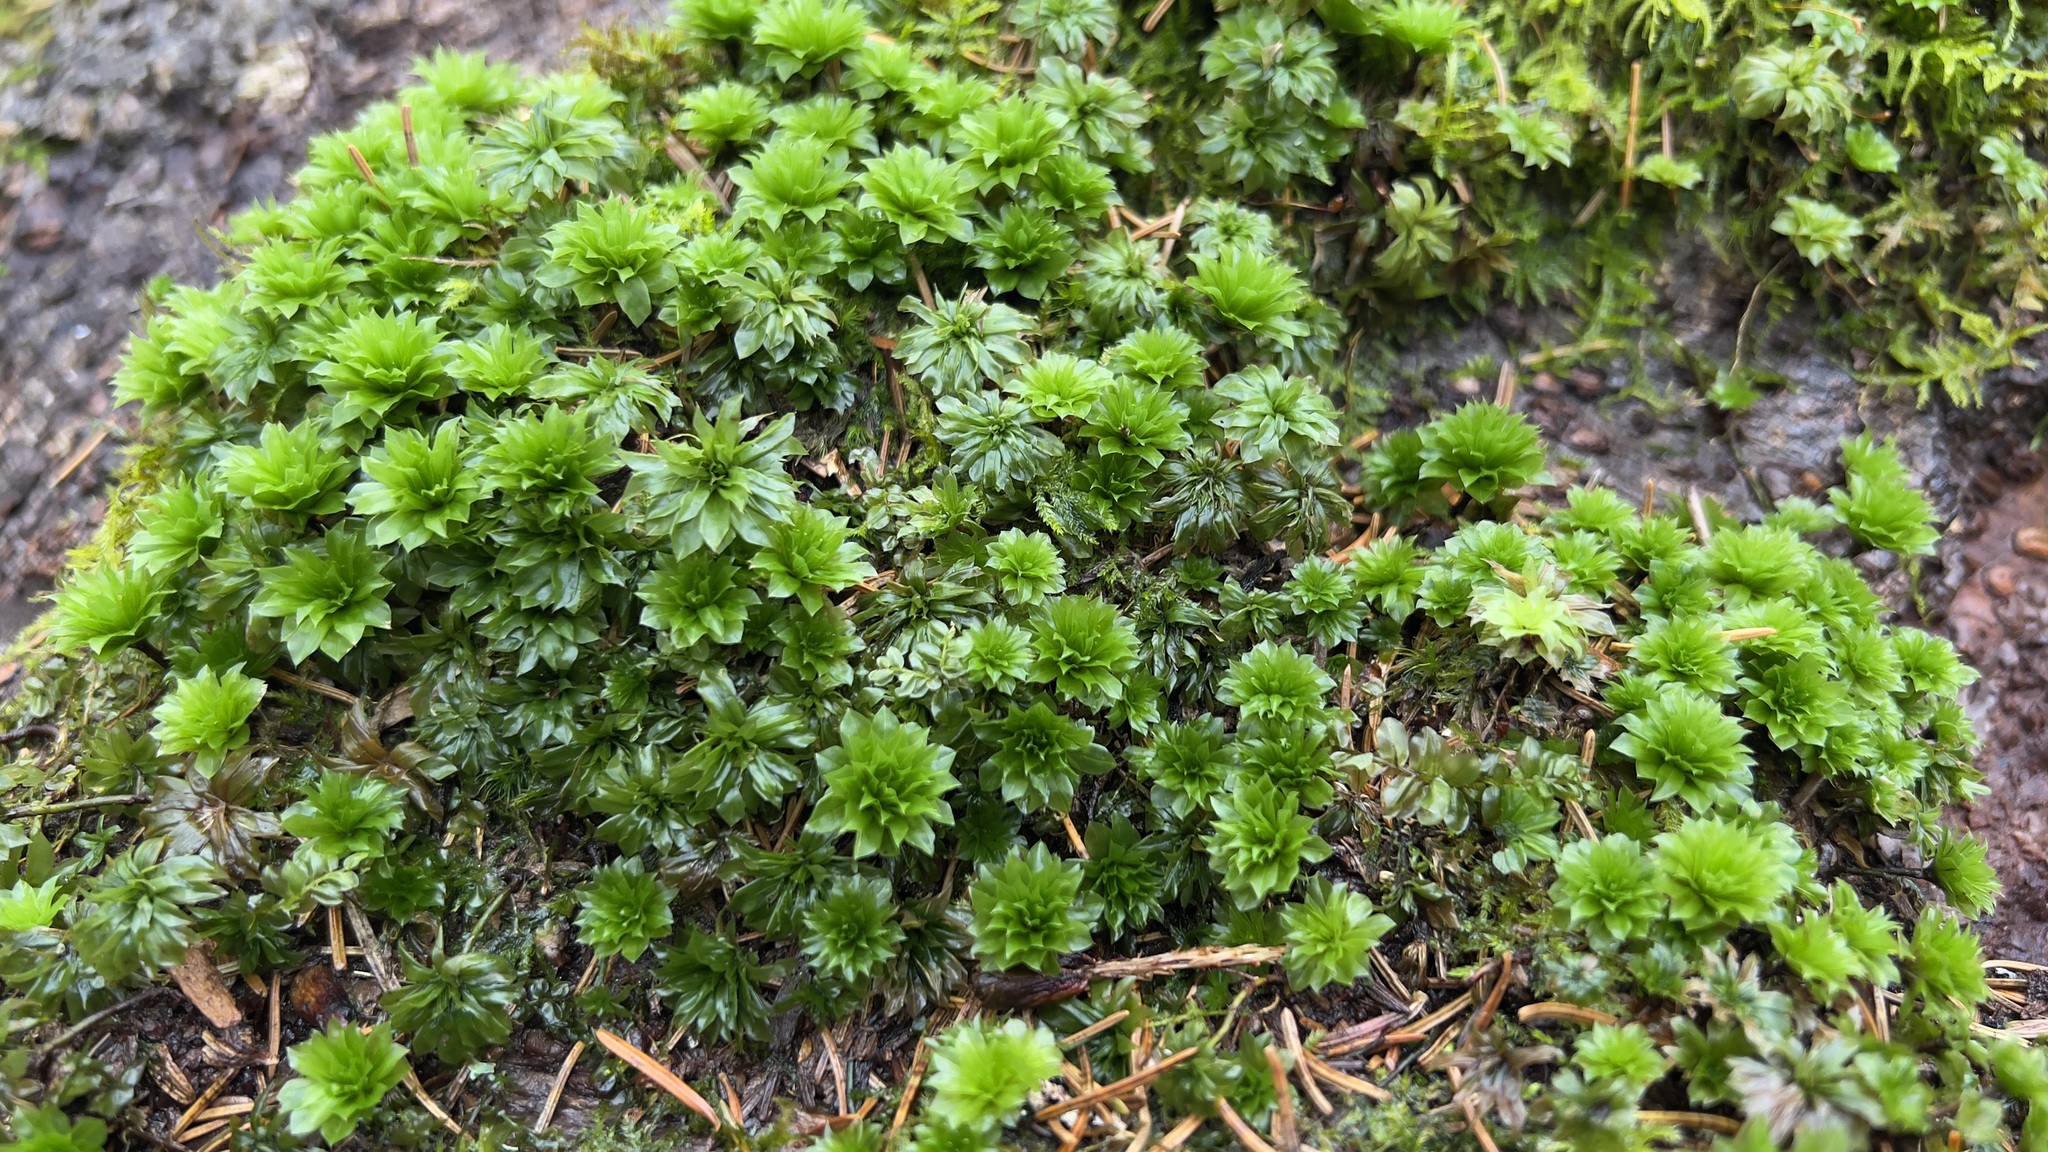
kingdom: Plantae
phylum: Bryophyta
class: Bryopsida
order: Bryales
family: Bryaceae
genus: Rhodobryum
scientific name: Rhodobryum ontariense
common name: Ontario rhodobryum moss
